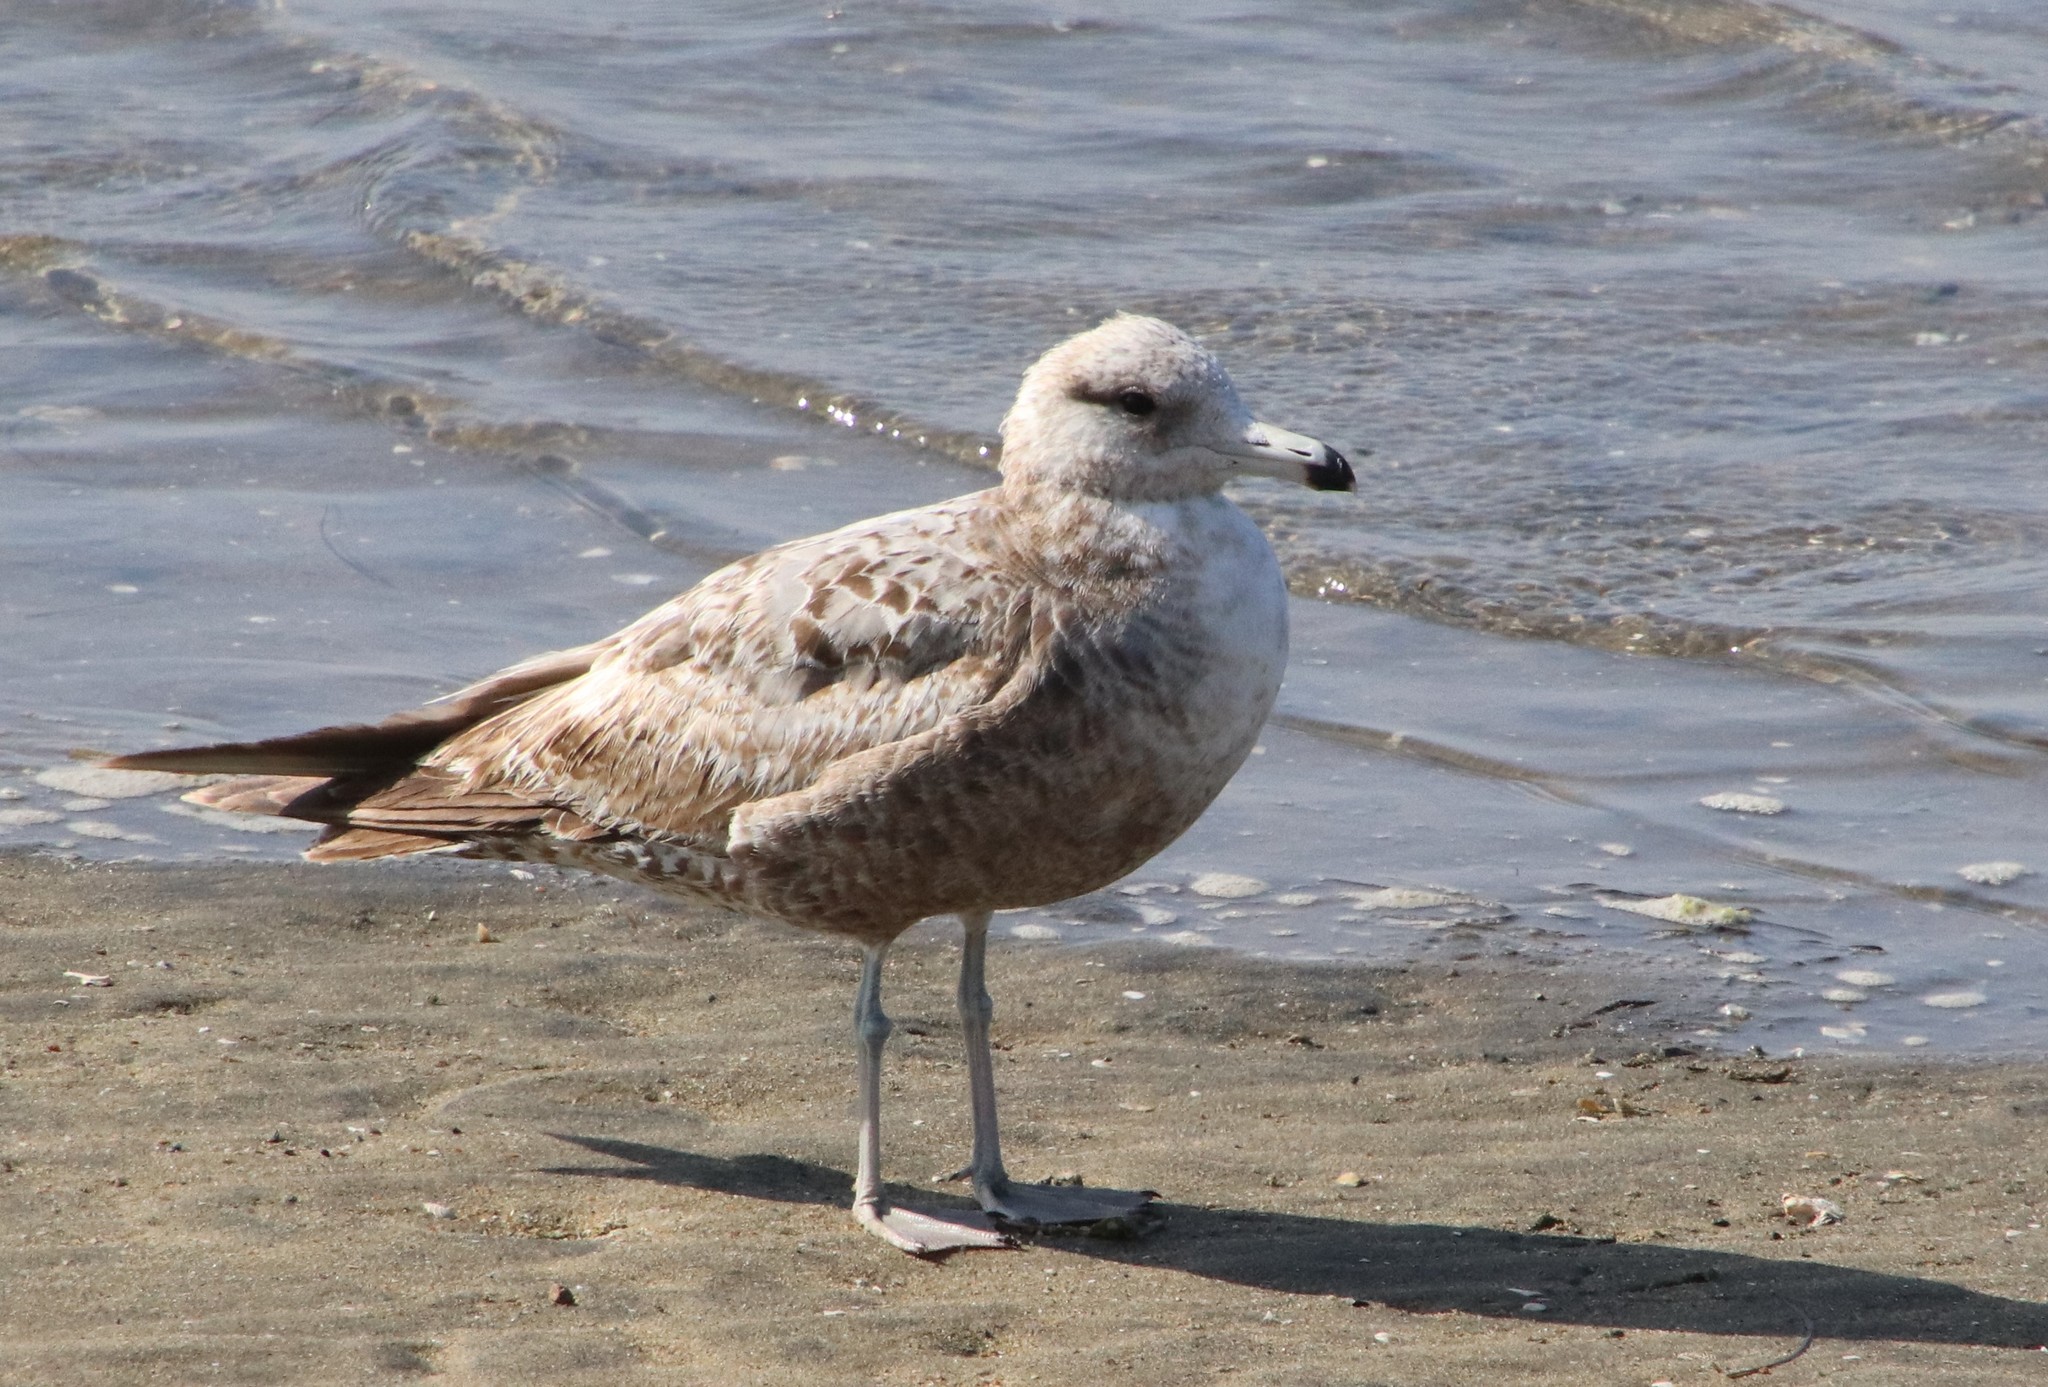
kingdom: Animalia
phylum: Chordata
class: Aves
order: Charadriiformes
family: Laridae
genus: Larus
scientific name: Larus californicus
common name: California gull
